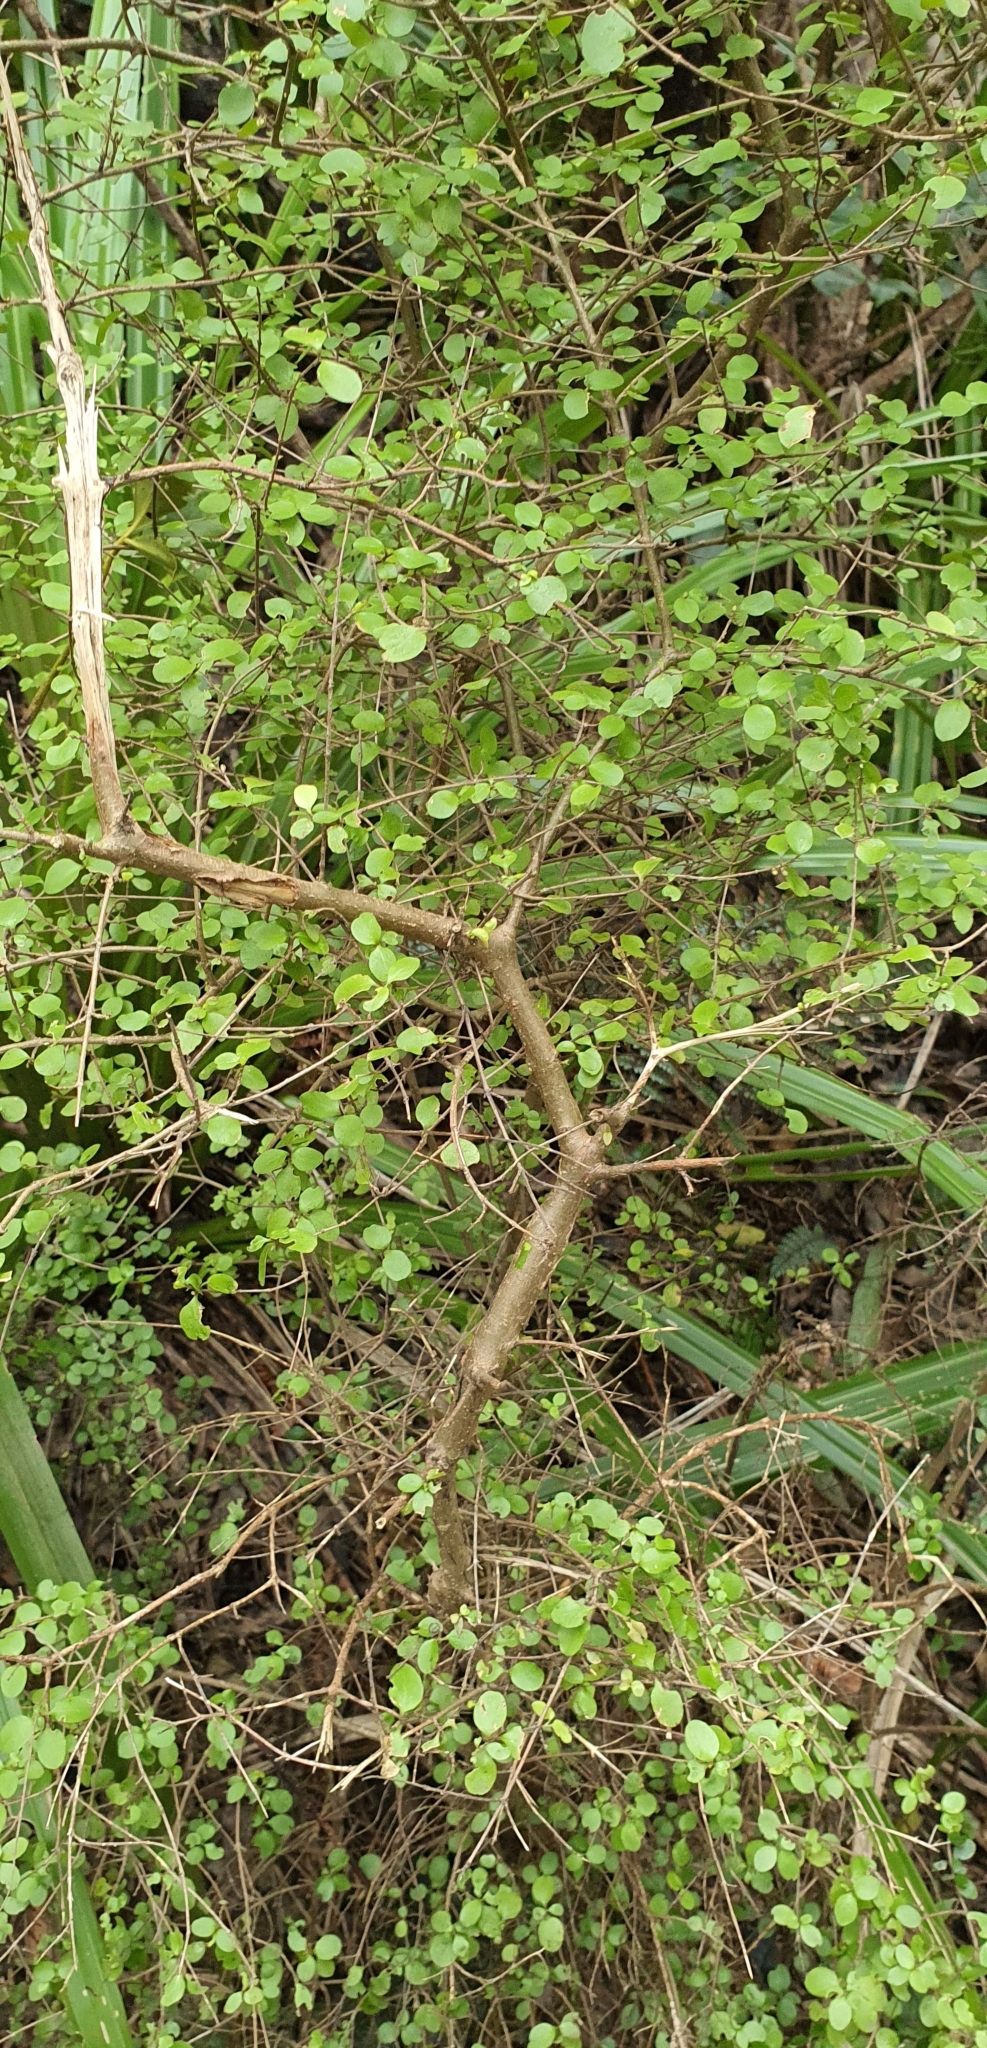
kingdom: Plantae
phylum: Tracheophyta
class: Magnoliopsida
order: Gentianales
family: Rubiaceae
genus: Coprosma
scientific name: Coprosma rhamnoides
